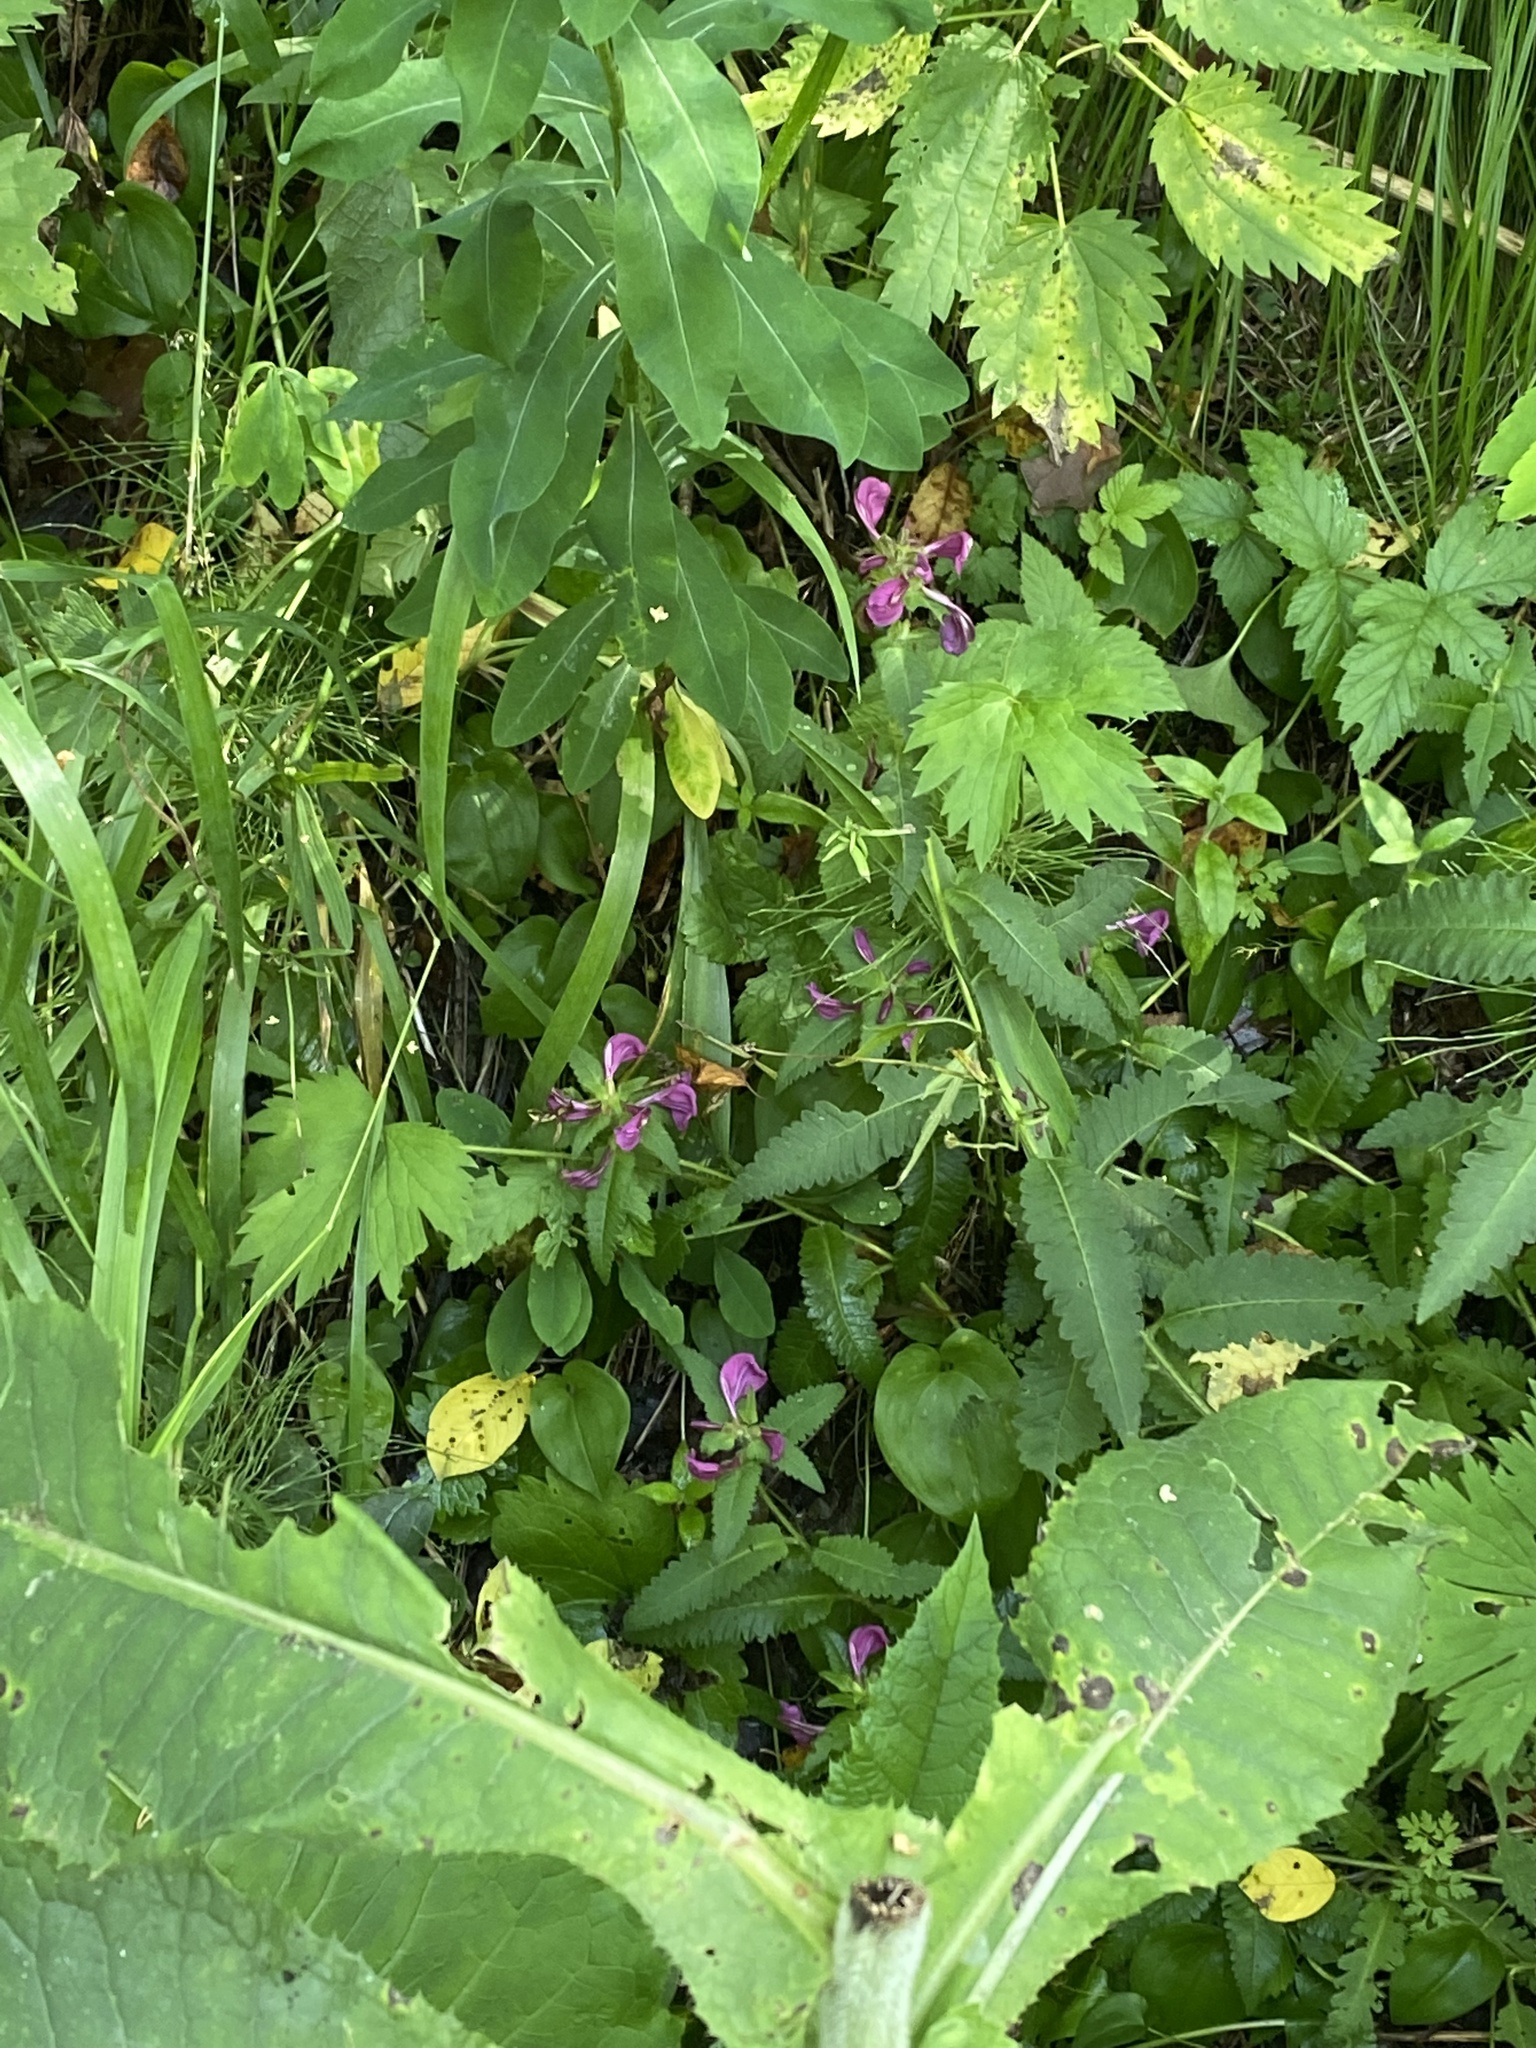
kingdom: Plantae
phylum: Tracheophyta
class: Magnoliopsida
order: Lamiales
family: Orobanchaceae
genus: Pedicularis
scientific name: Pedicularis resupinata
